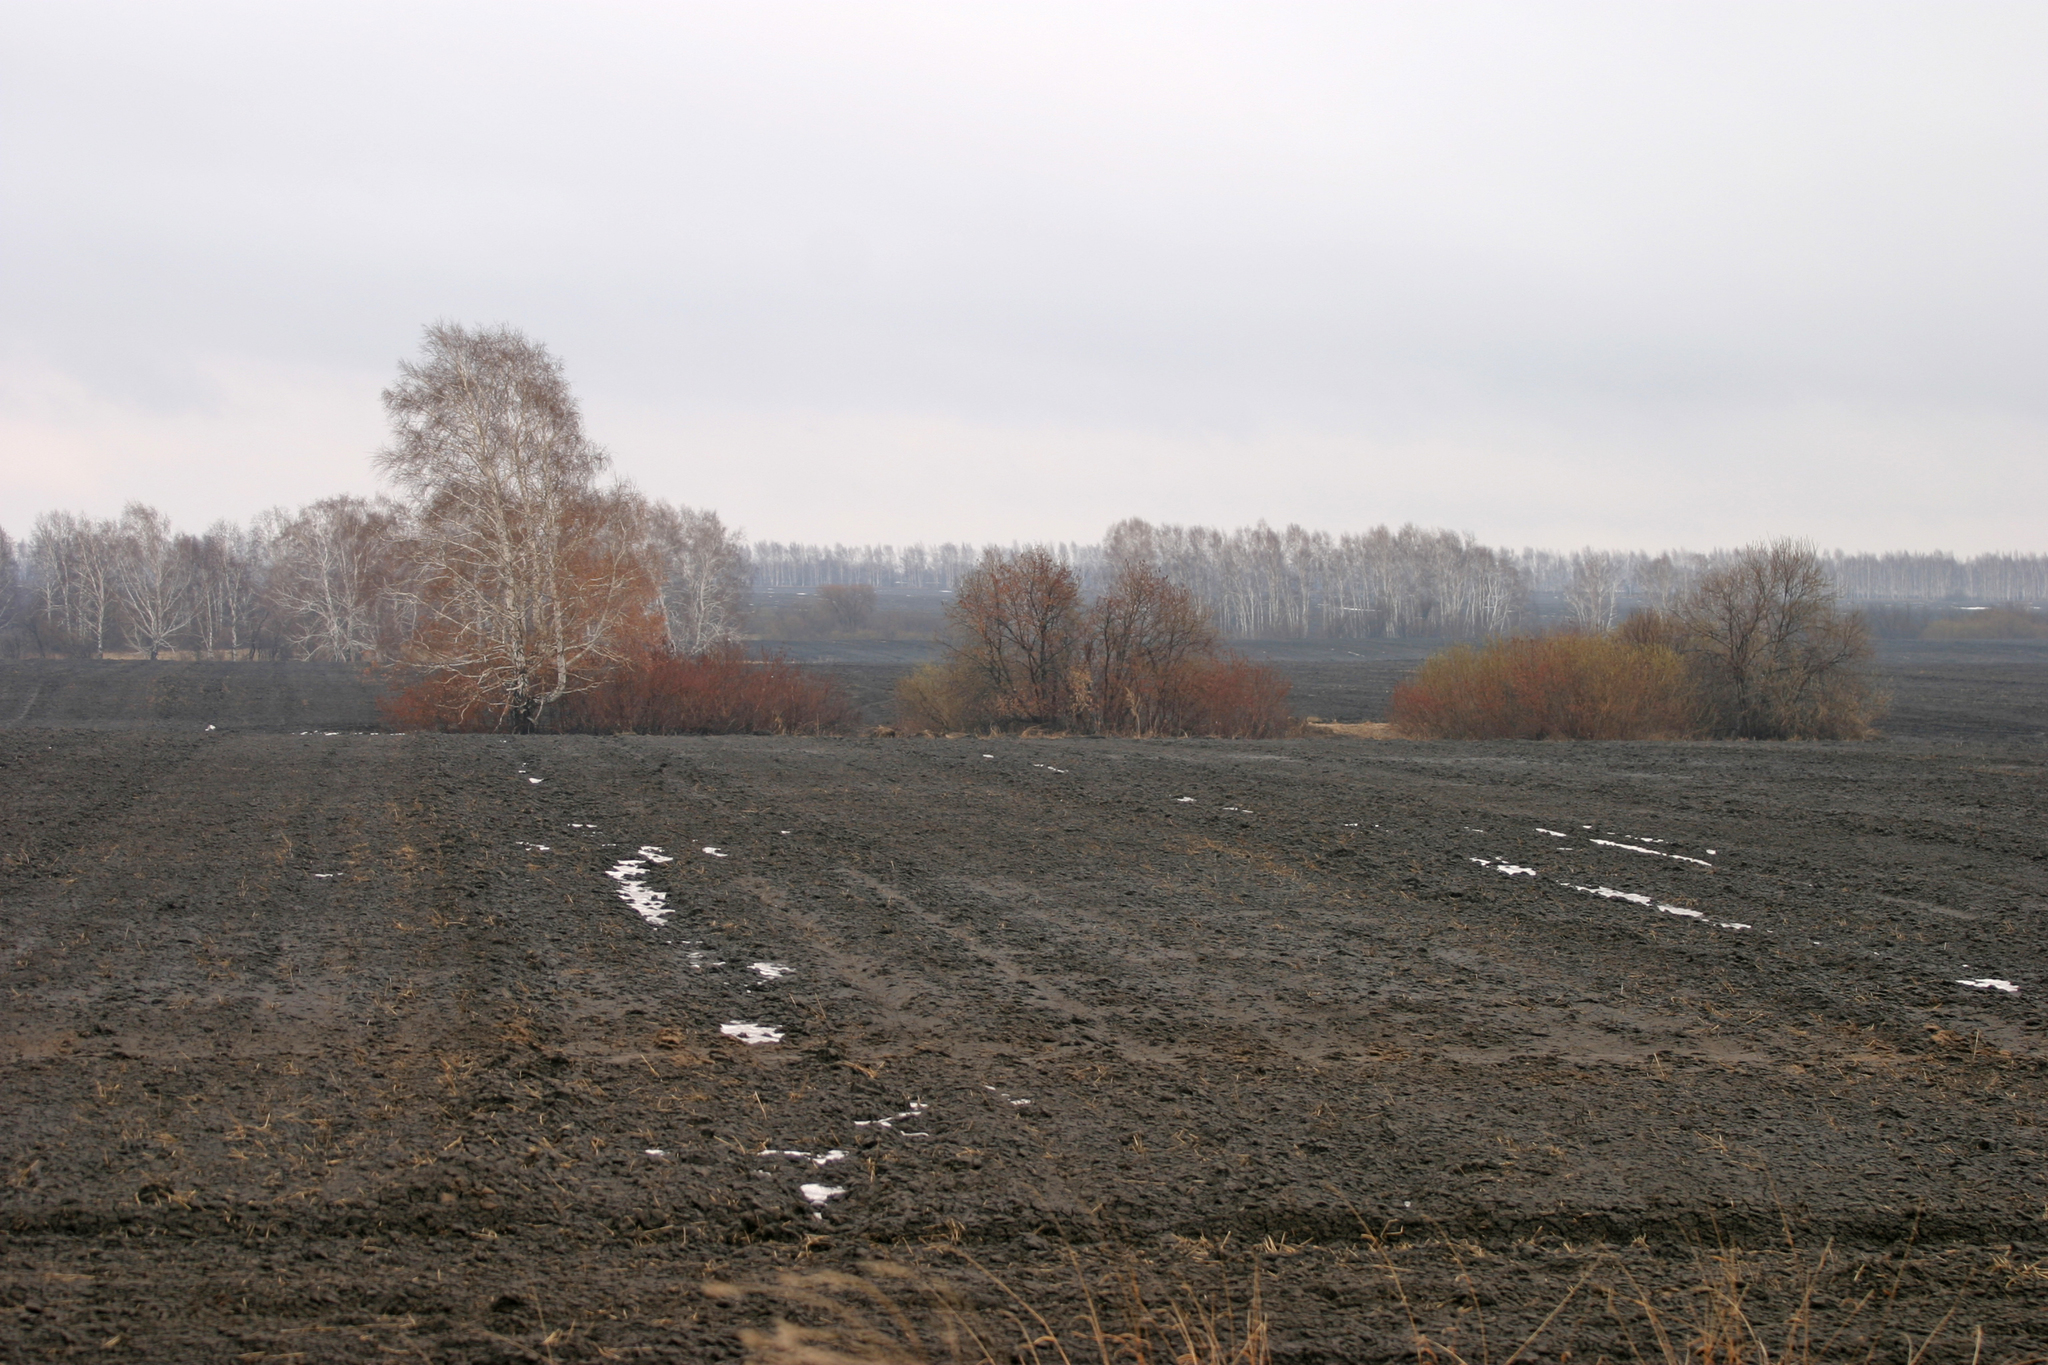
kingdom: Plantae
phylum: Tracheophyta
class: Magnoliopsida
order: Fagales
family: Betulaceae
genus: Betula
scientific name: Betula pendula
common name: Silver birch
